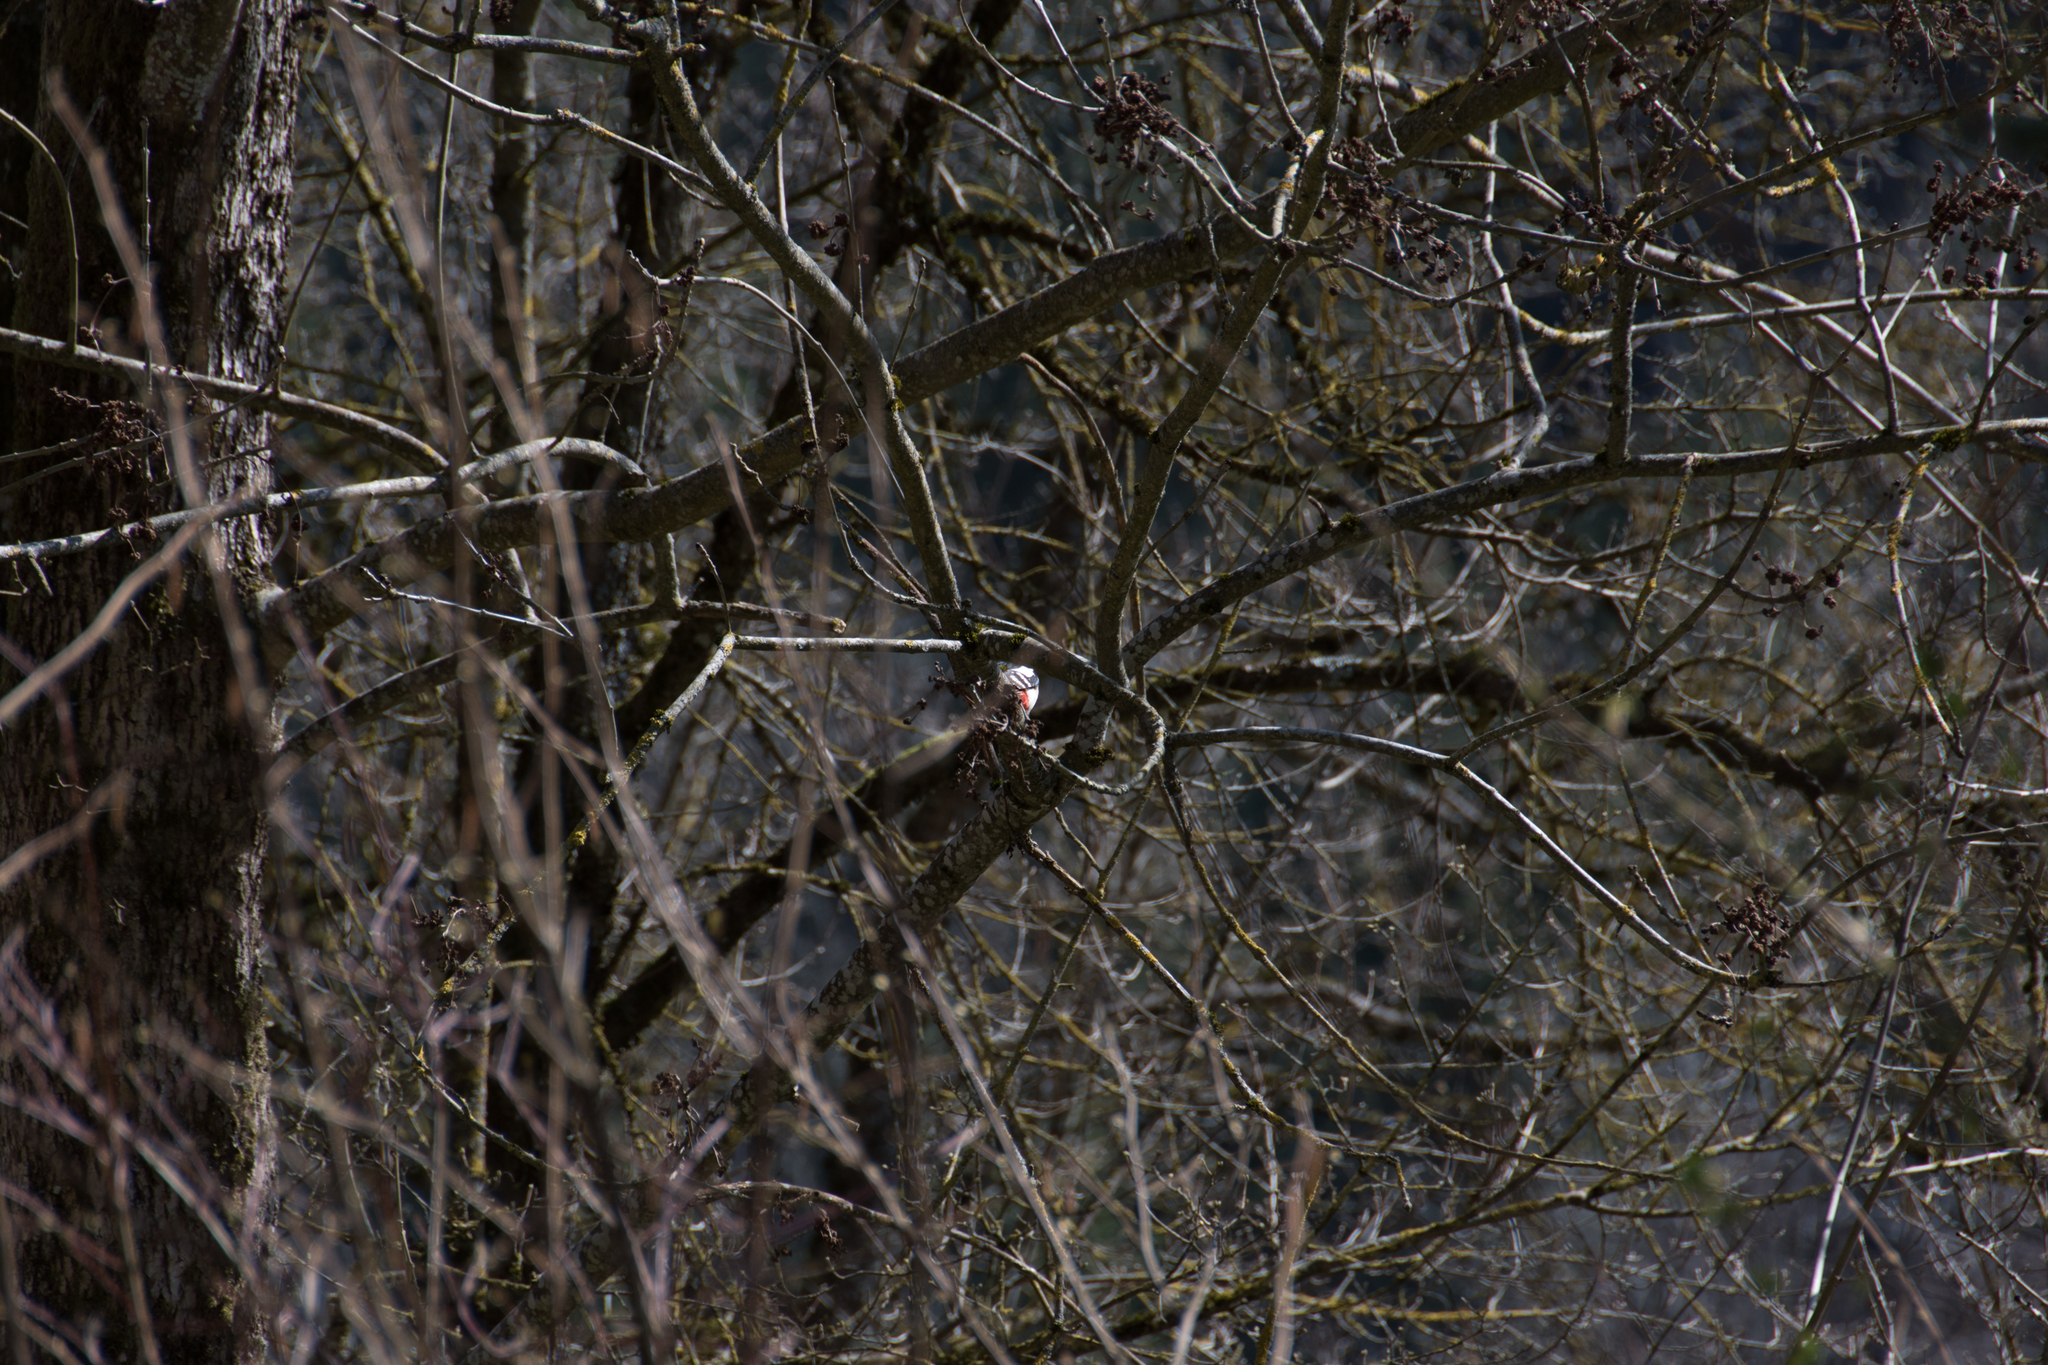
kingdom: Animalia
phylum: Chordata
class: Aves
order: Piciformes
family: Picidae
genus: Dendrocopos
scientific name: Dendrocopos major
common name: Great spotted woodpecker
